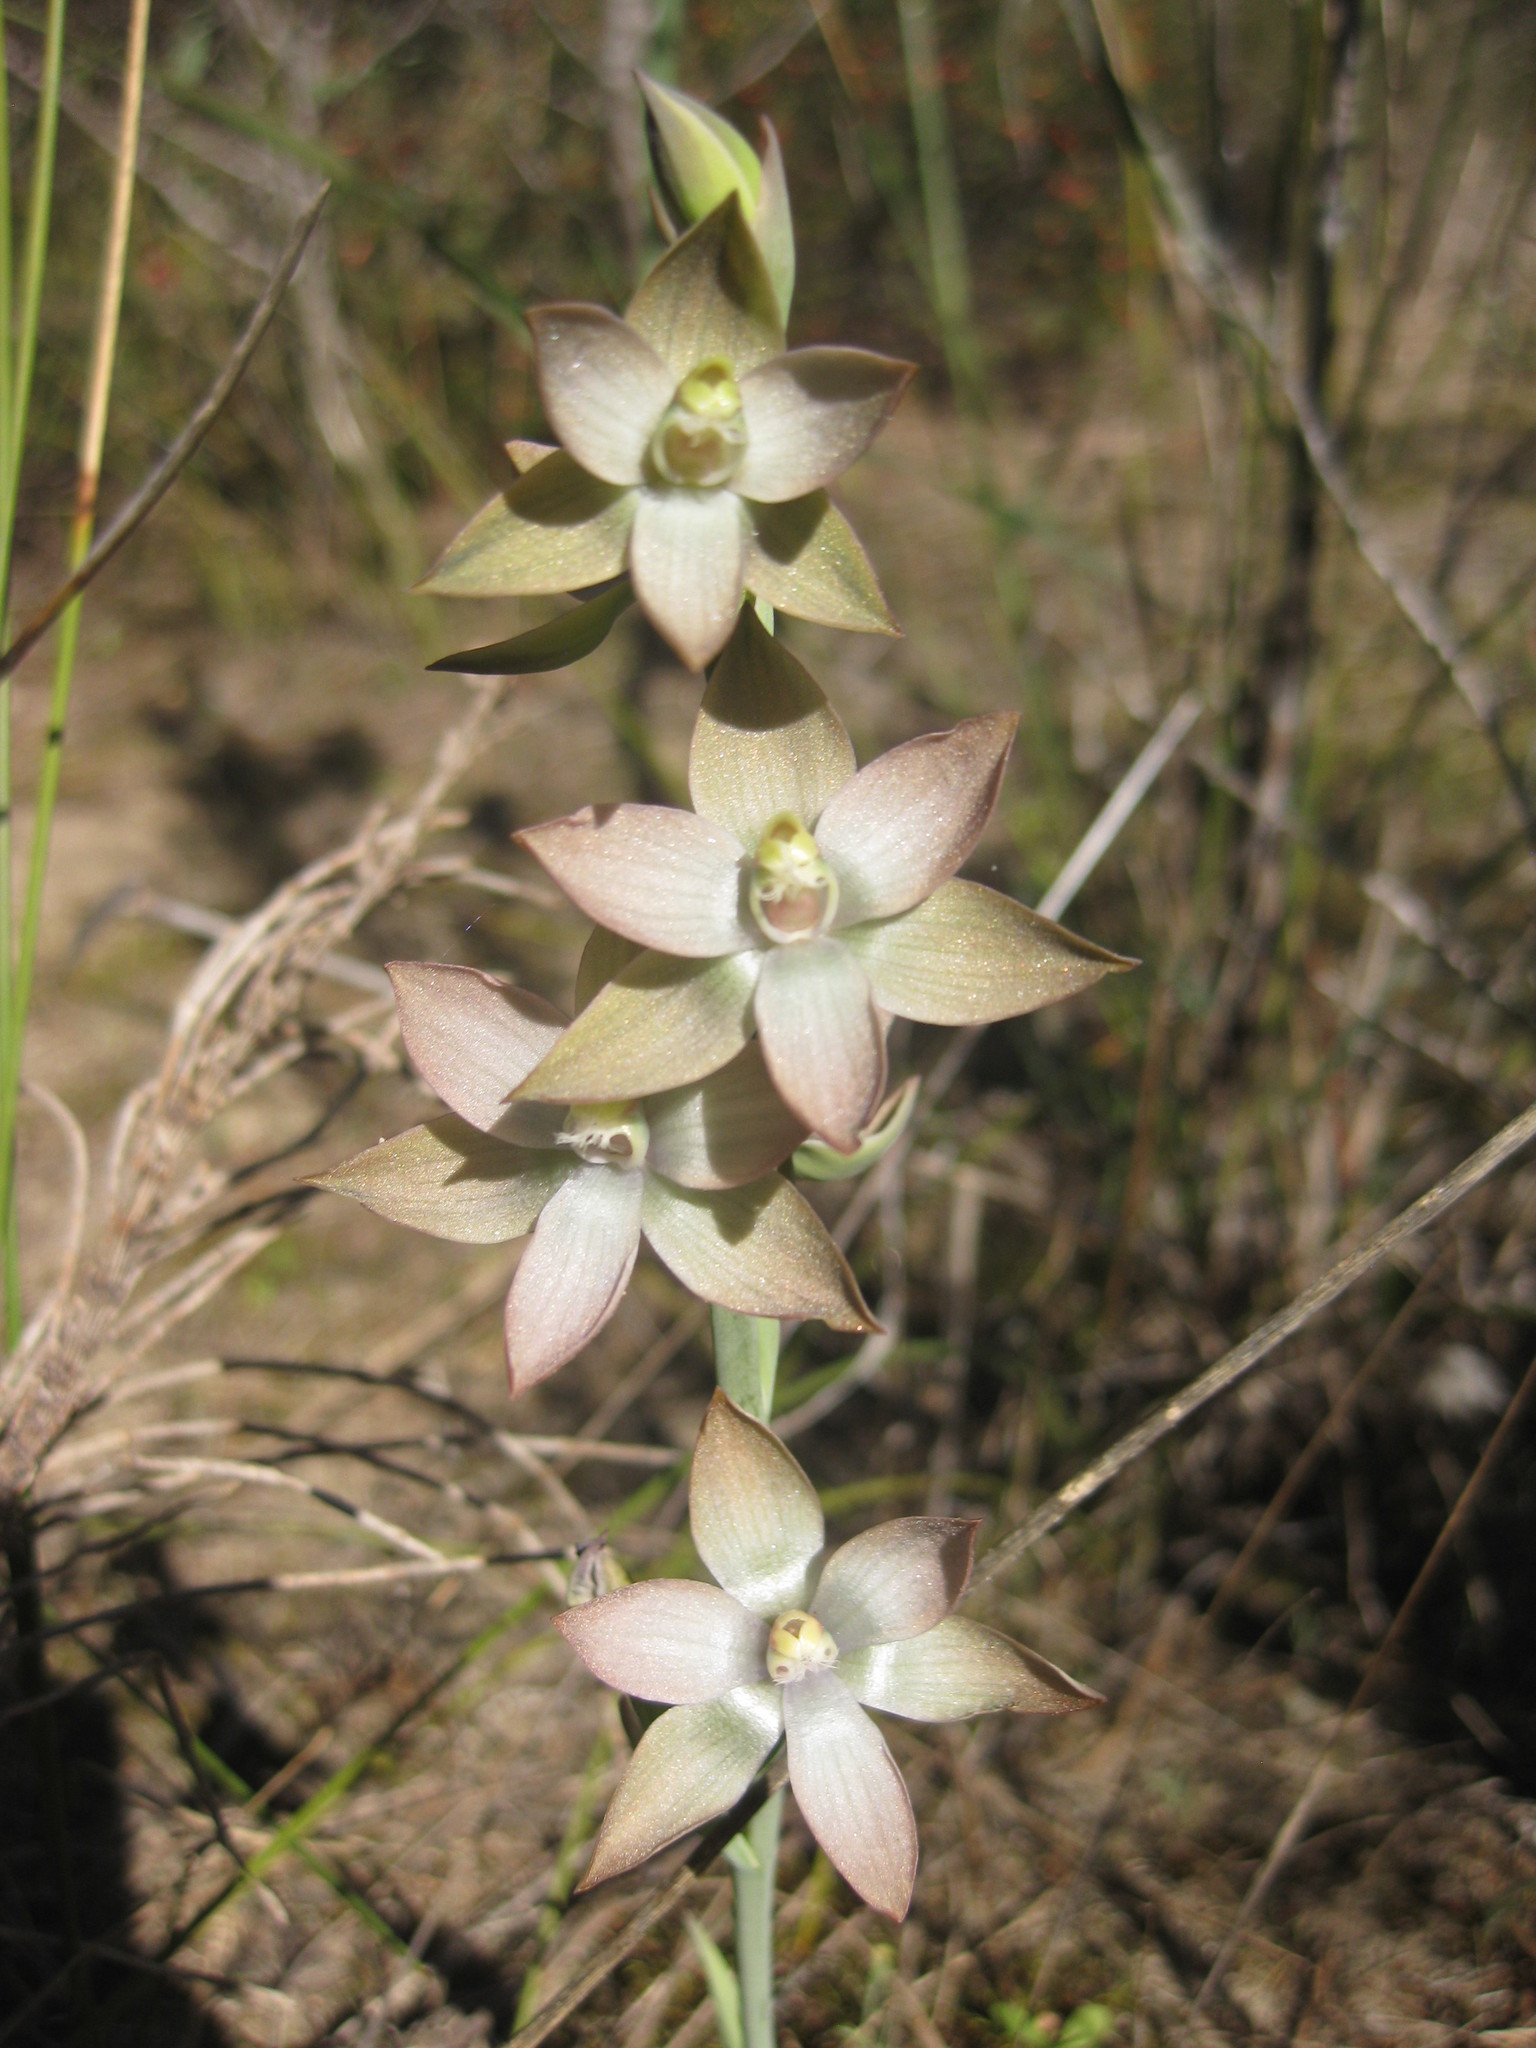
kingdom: Plantae
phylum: Tracheophyta
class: Liliopsida
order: Asparagales
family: Orchidaceae
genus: Thelymitra
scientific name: Thelymitra epipactoides
